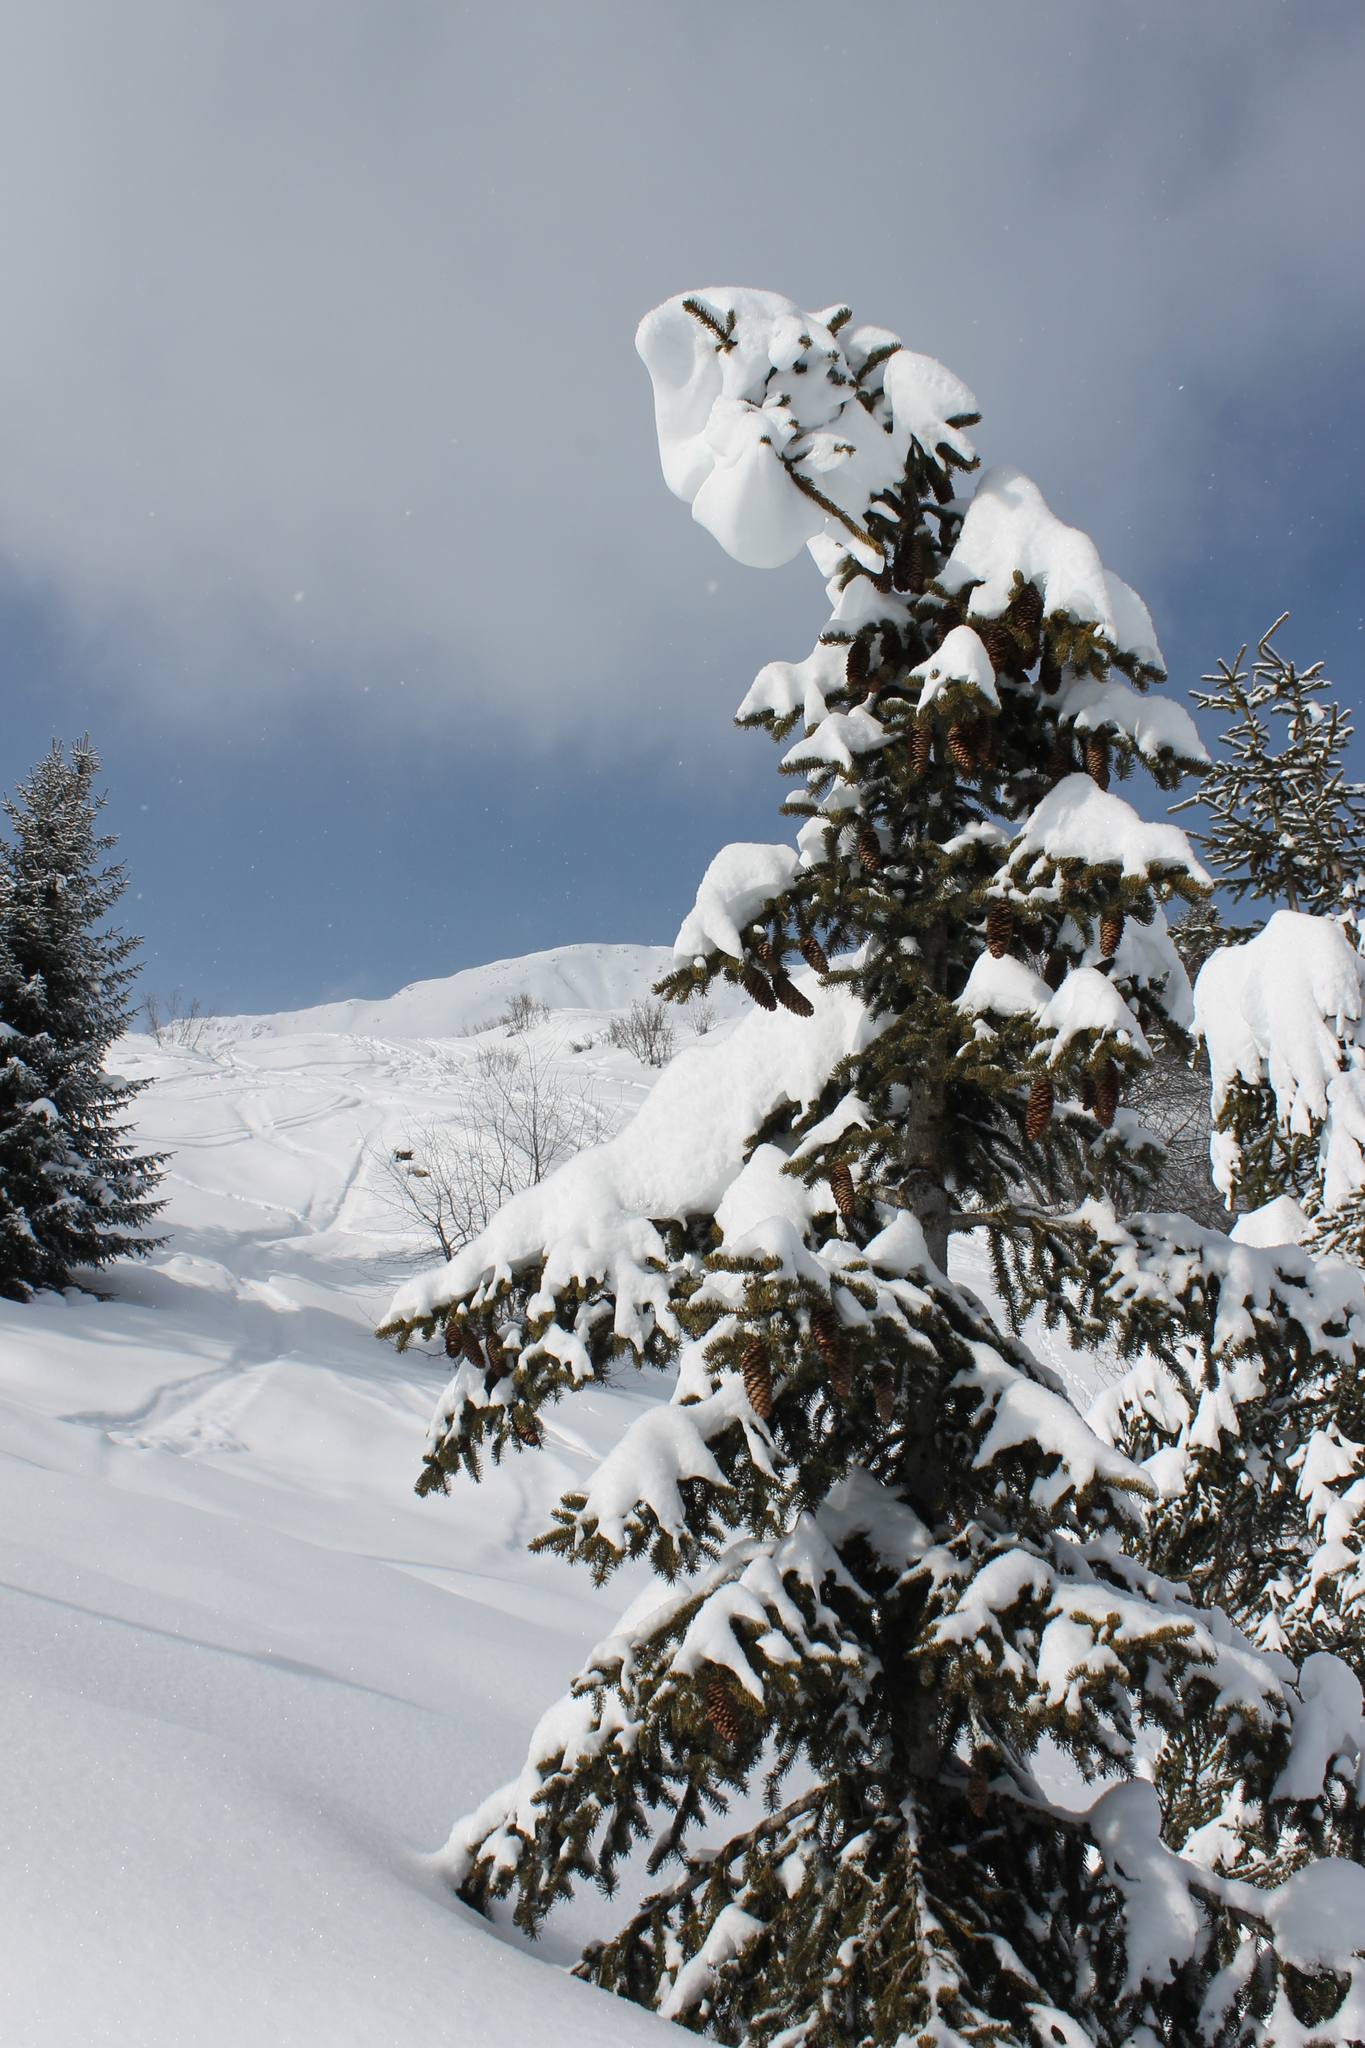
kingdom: Plantae
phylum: Tracheophyta
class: Pinopsida
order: Pinales
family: Pinaceae
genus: Picea
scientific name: Picea abies
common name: Norway spruce
